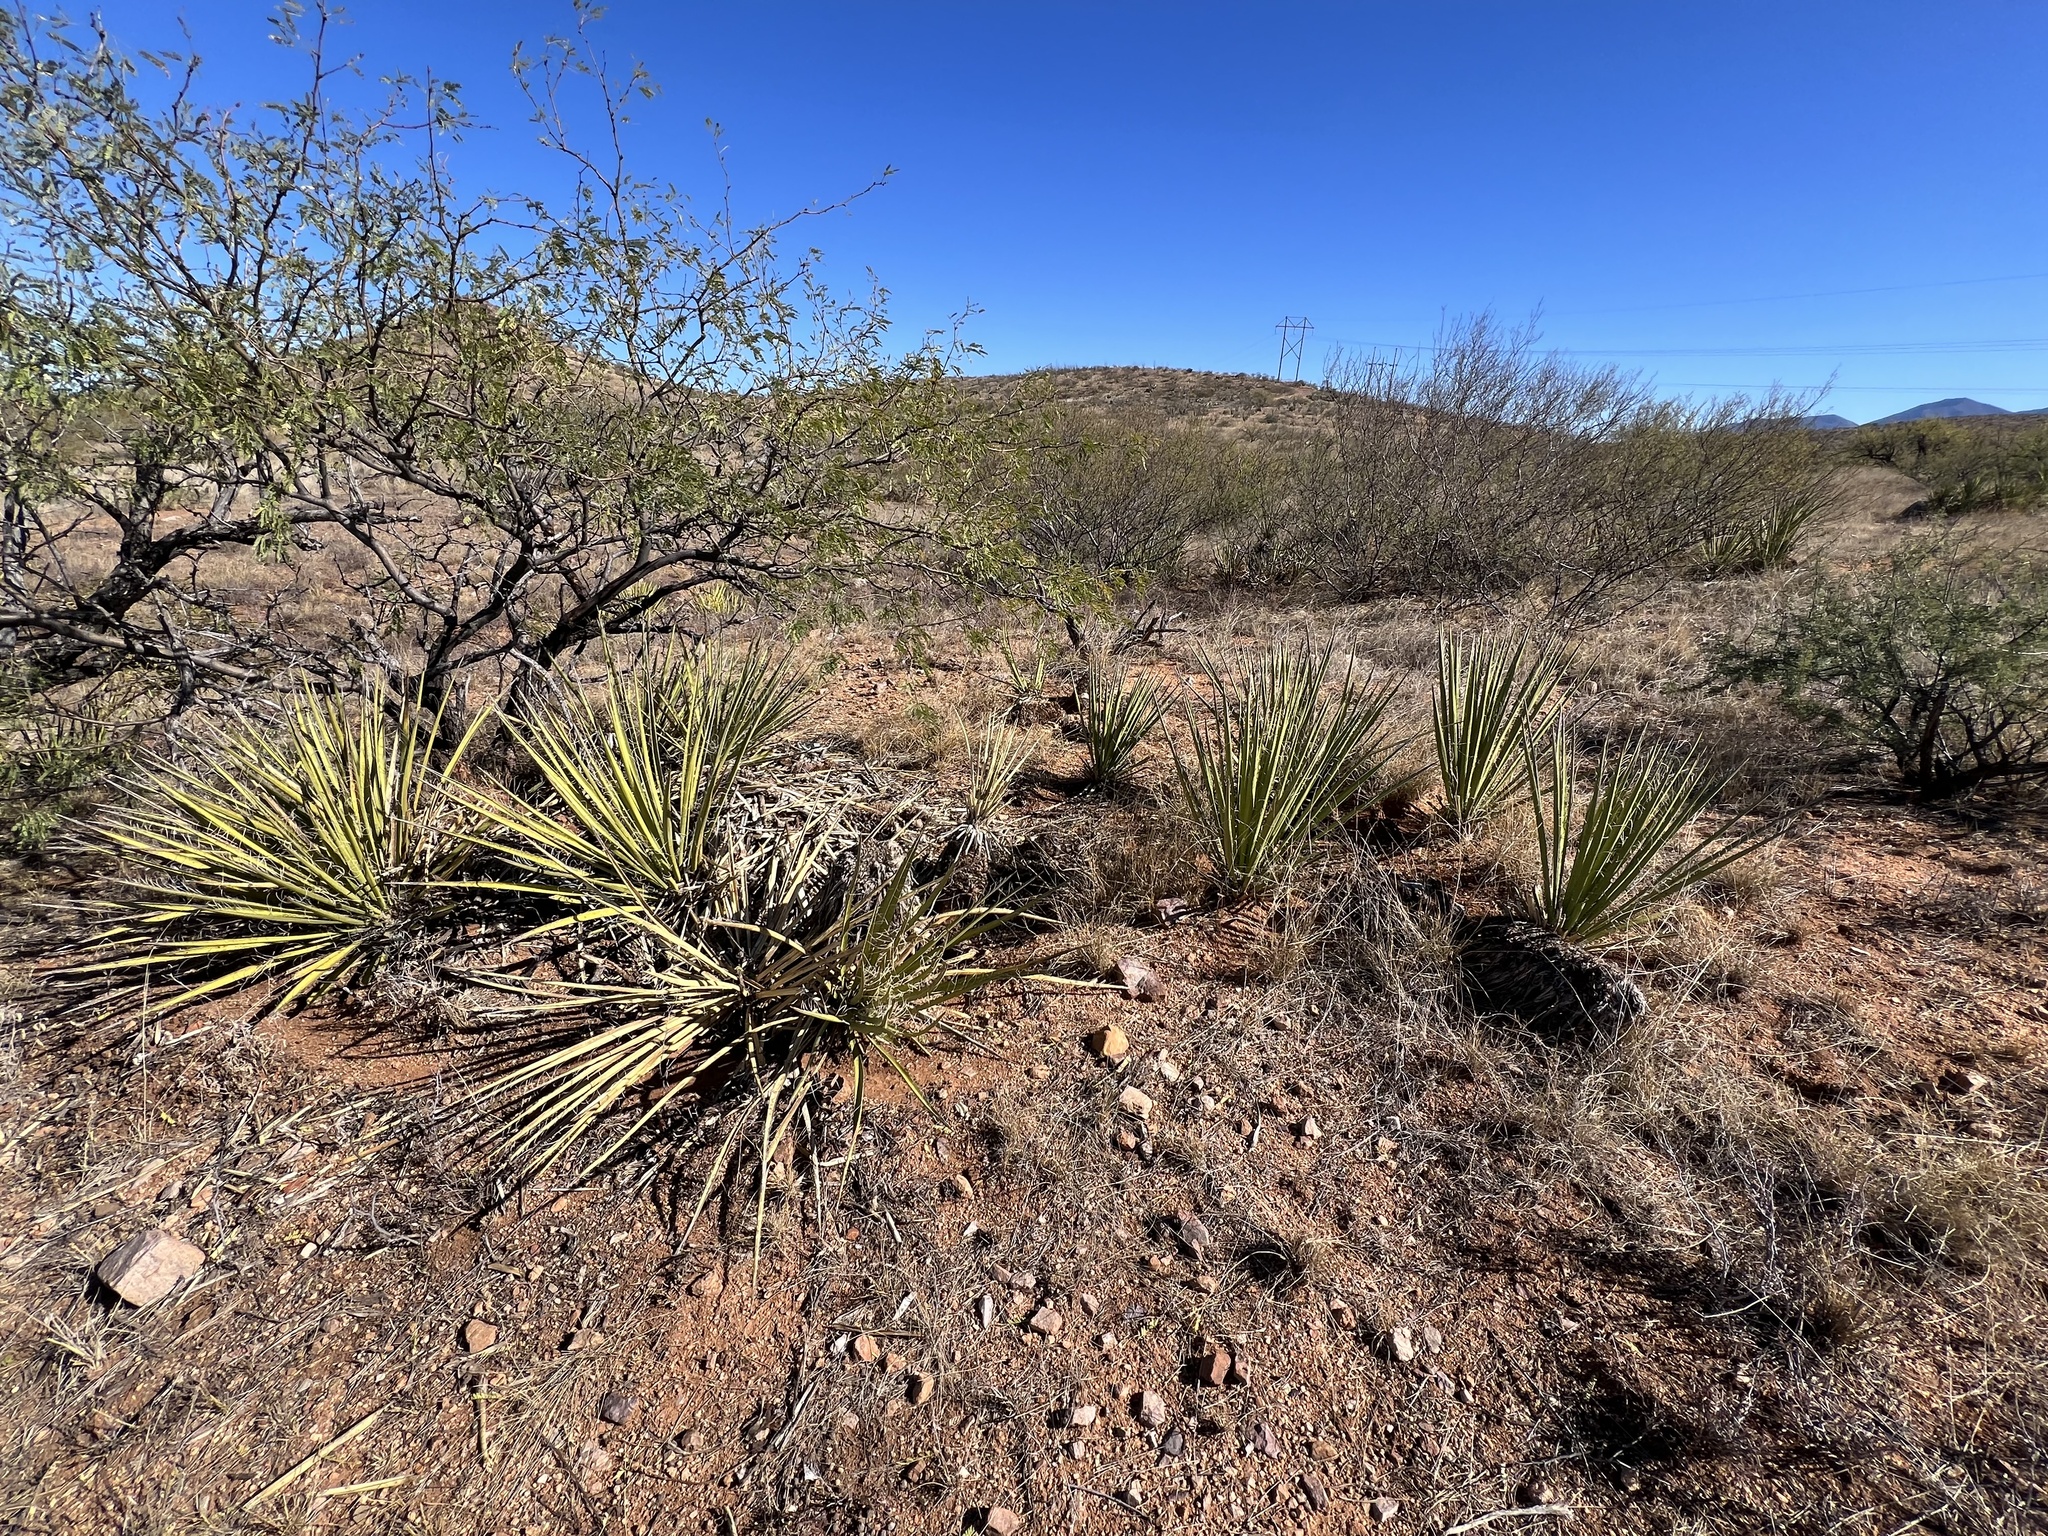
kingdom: Plantae
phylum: Tracheophyta
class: Liliopsida
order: Asparagales
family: Asparagaceae
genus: Yucca
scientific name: Yucca baccata
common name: Banana yucca
